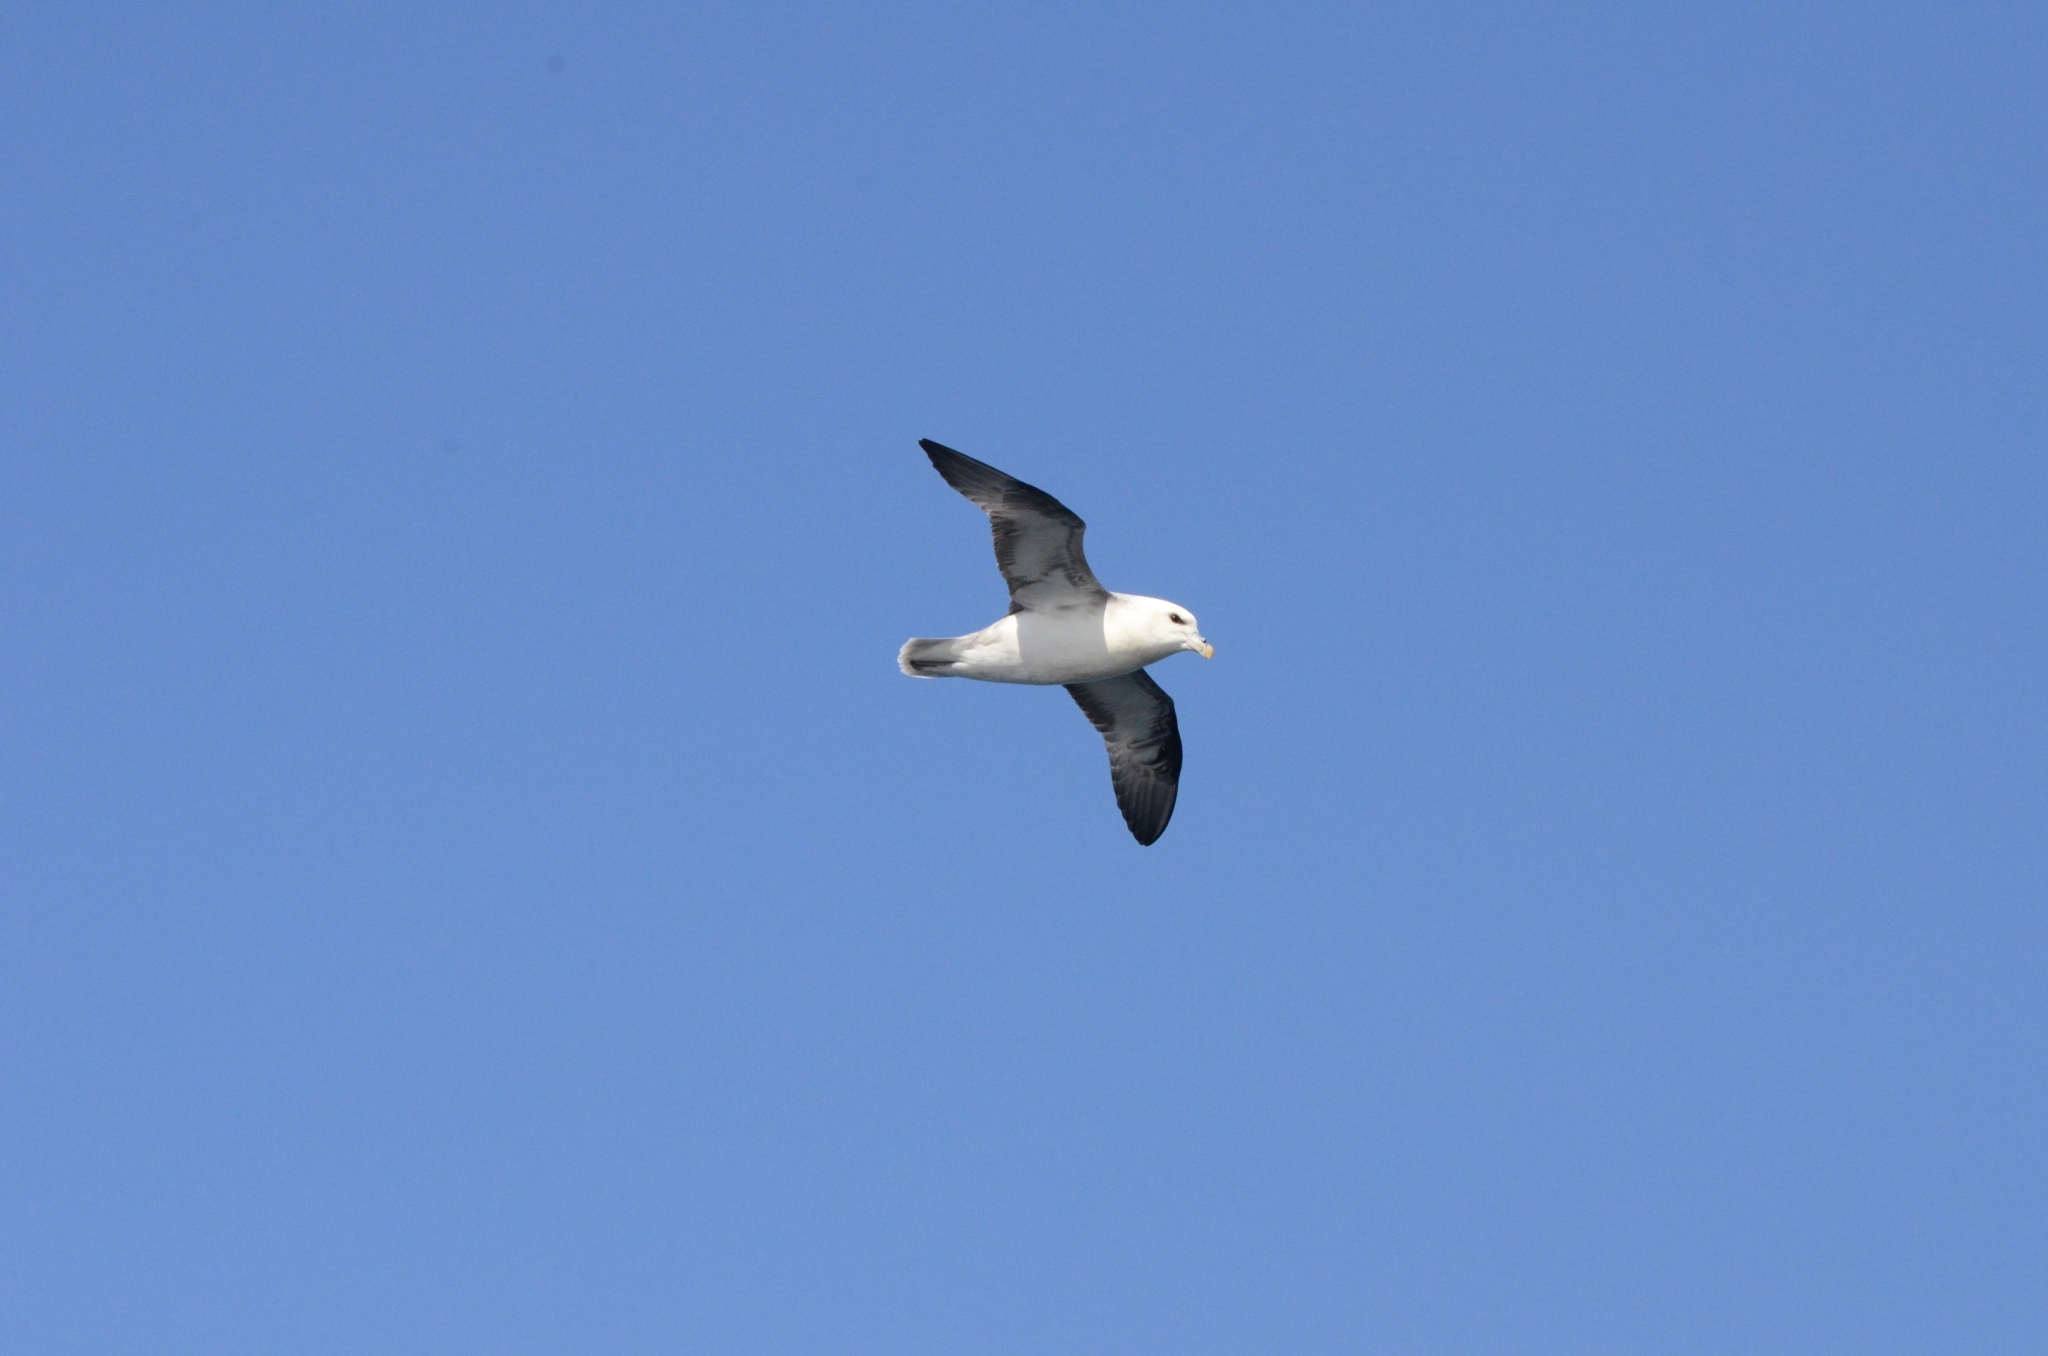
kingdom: Animalia
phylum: Chordata
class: Aves
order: Procellariiformes
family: Procellariidae
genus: Fulmarus
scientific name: Fulmarus glacialis
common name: Northern fulmar
